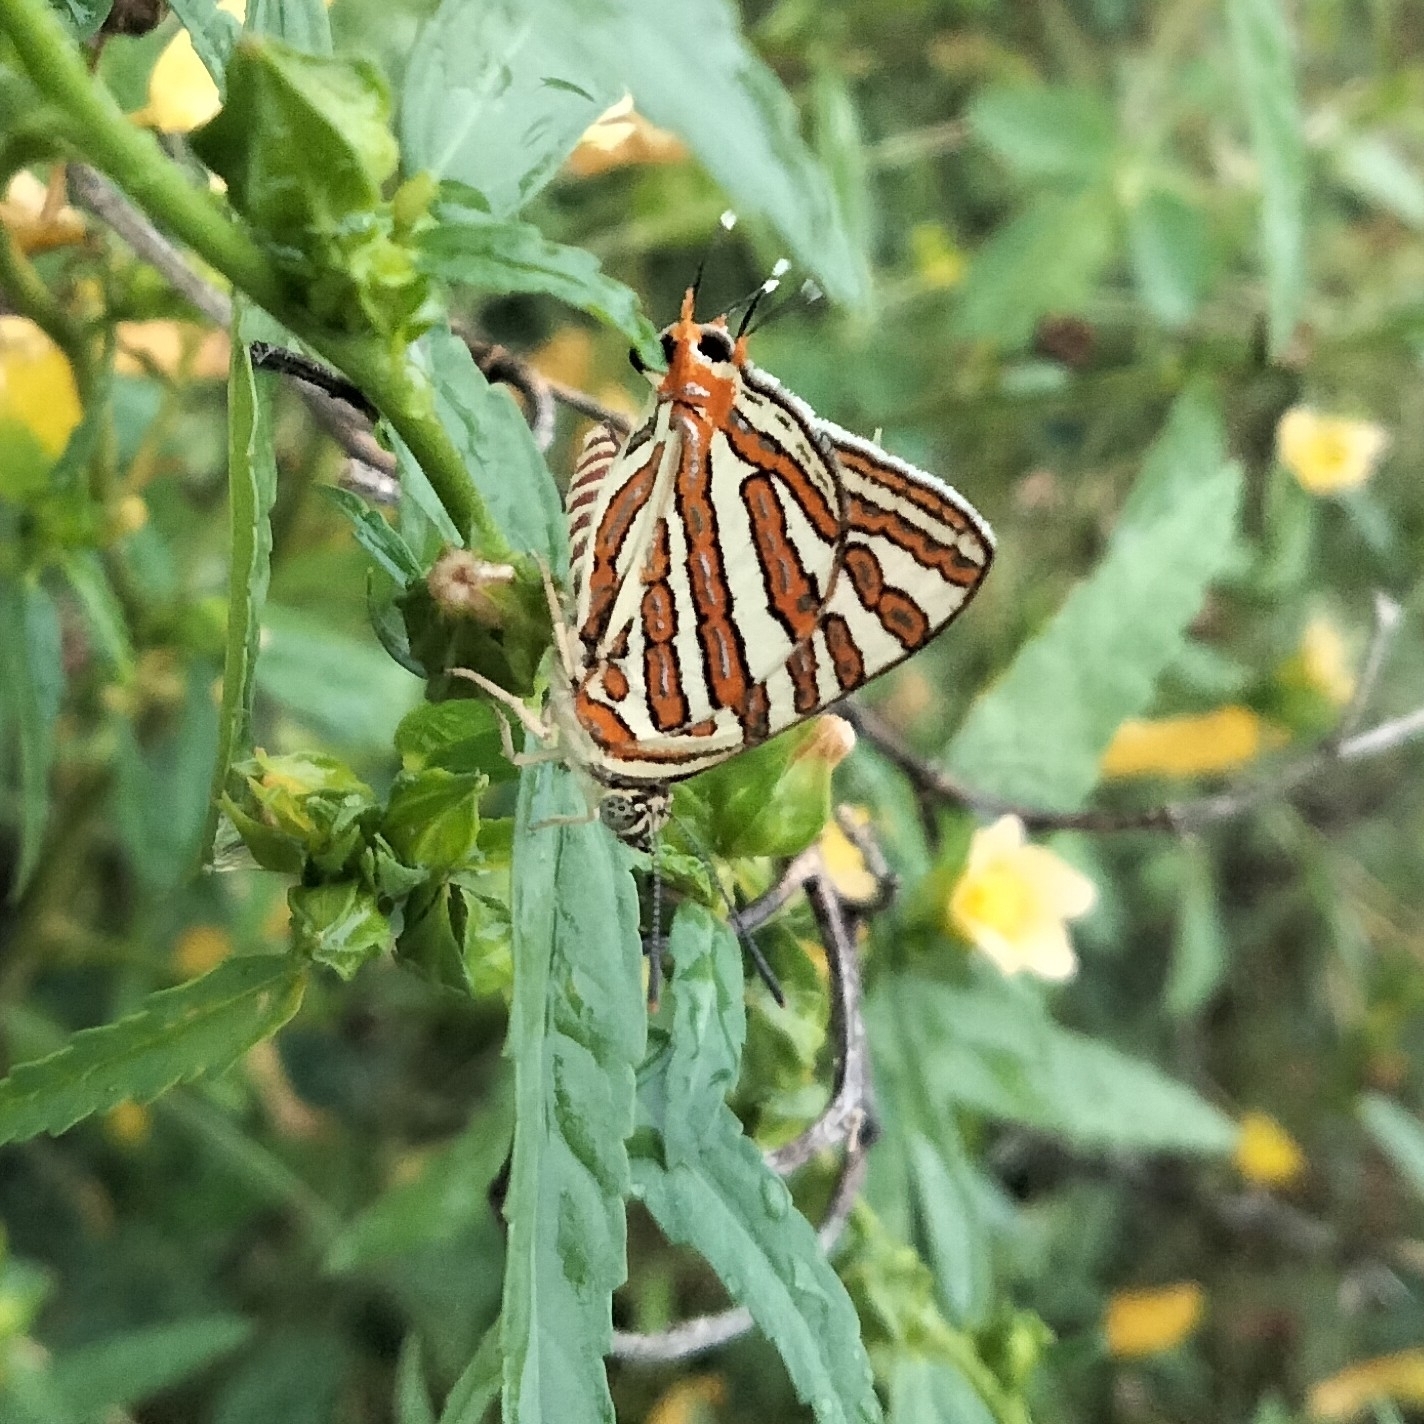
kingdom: Animalia
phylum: Arthropoda
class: Insecta
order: Lepidoptera
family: Lycaenidae
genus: Cigaritis
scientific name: Cigaritis vulcanus
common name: Common silverline
